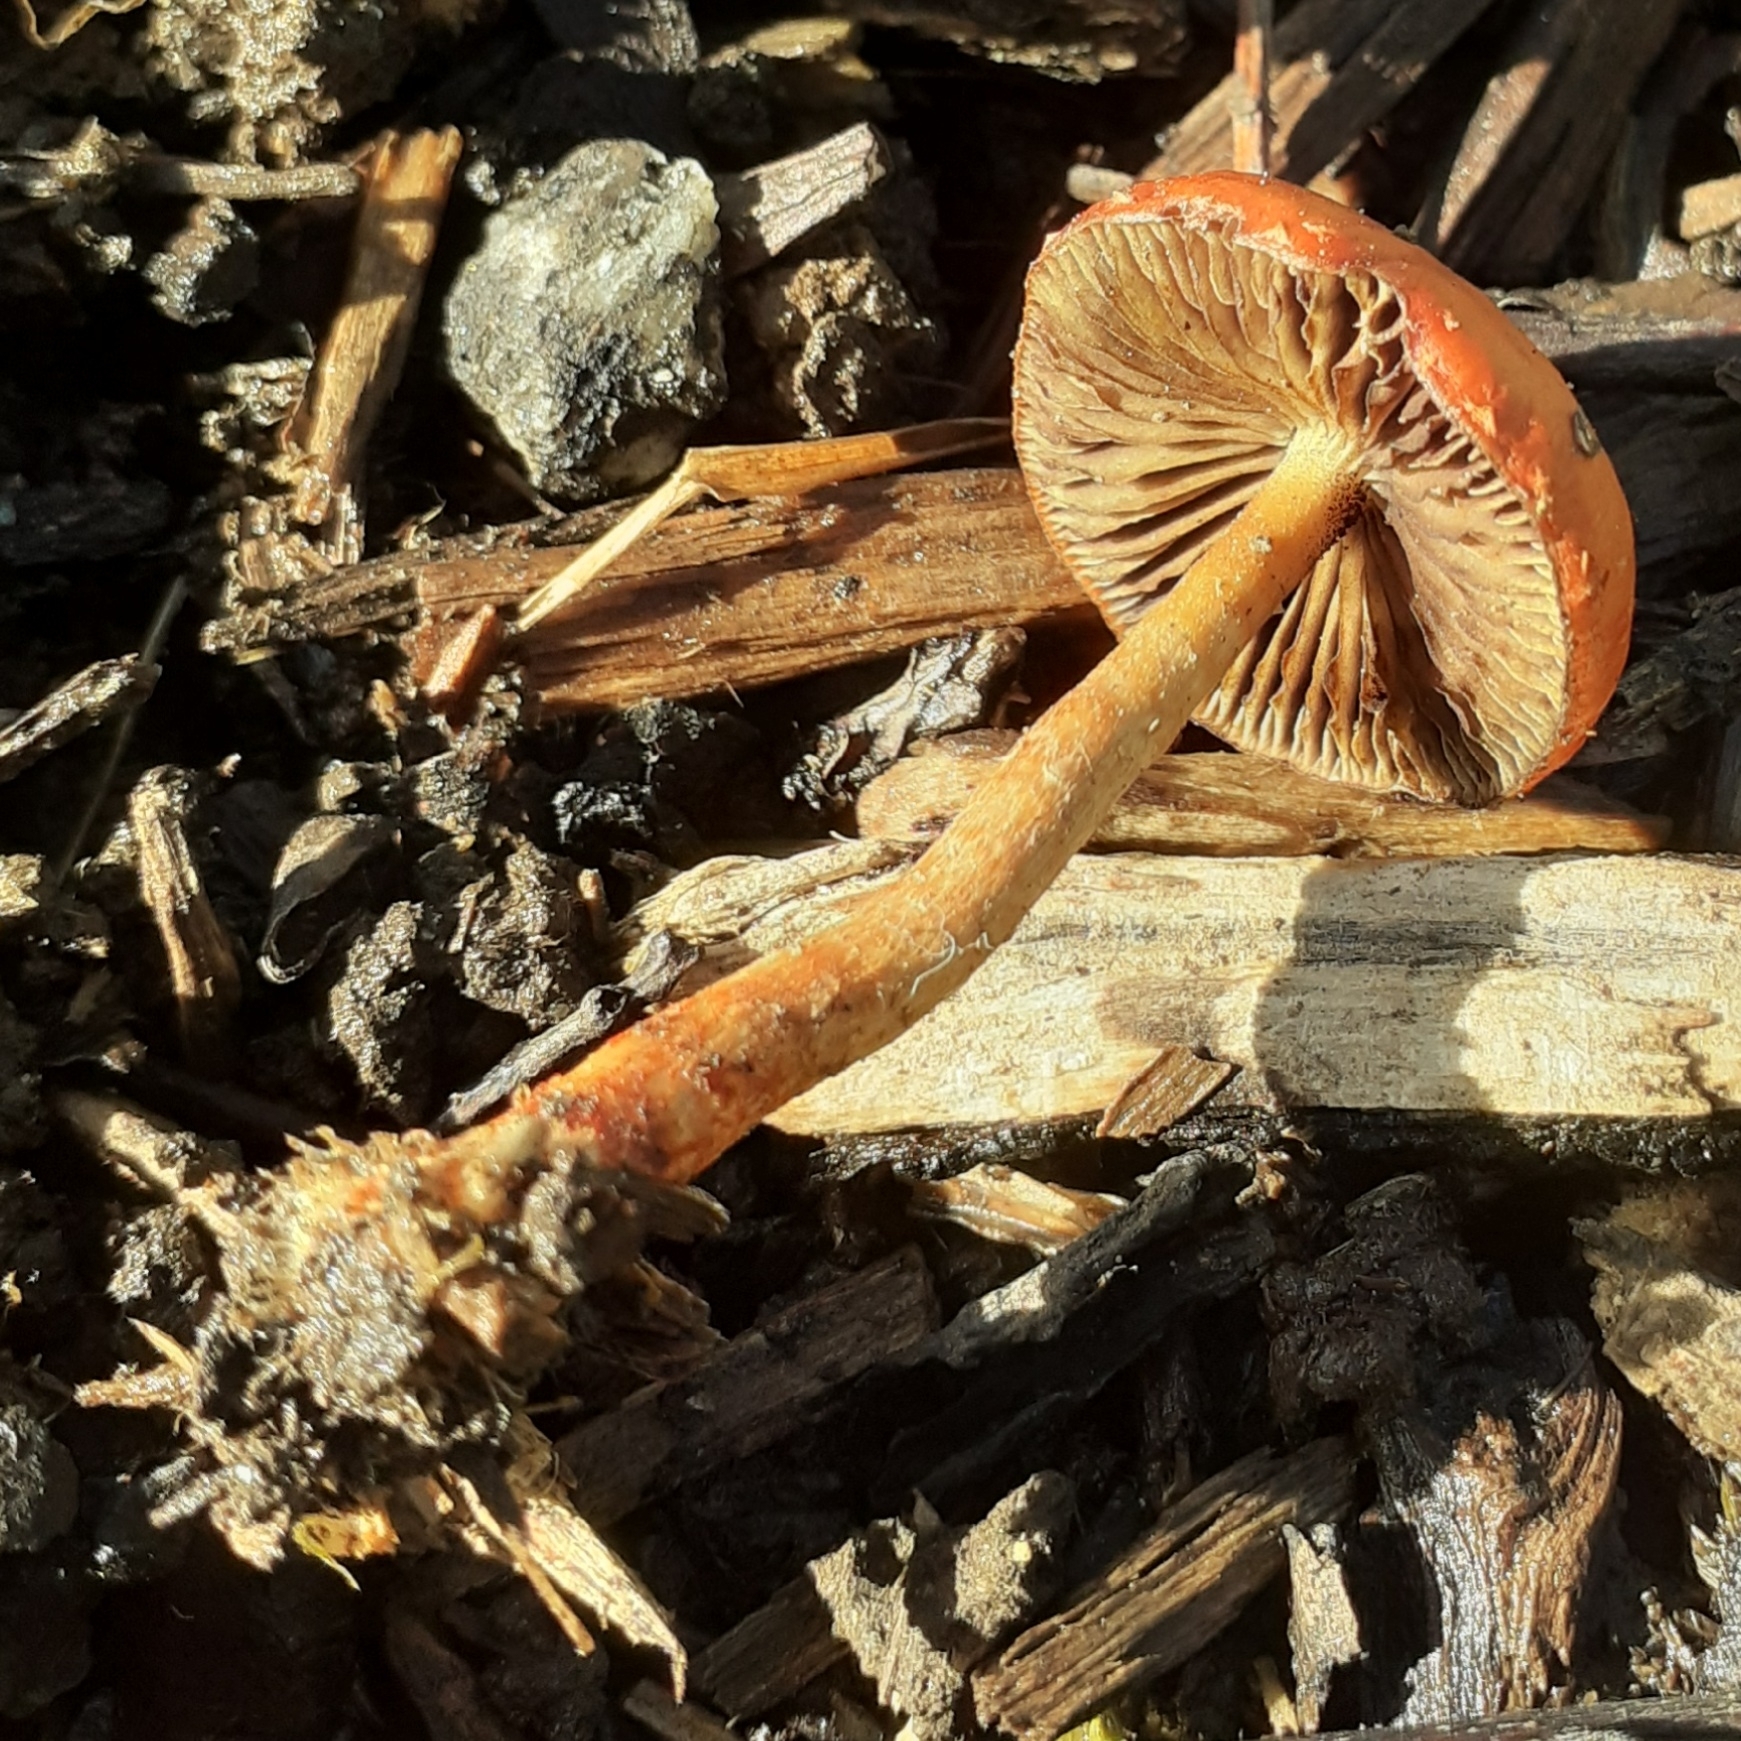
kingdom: Fungi
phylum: Basidiomycota
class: Agaricomycetes
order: Agaricales
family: Strophariaceae
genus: Leratiomyces
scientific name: Leratiomyces ceres
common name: Redlead roundhead
